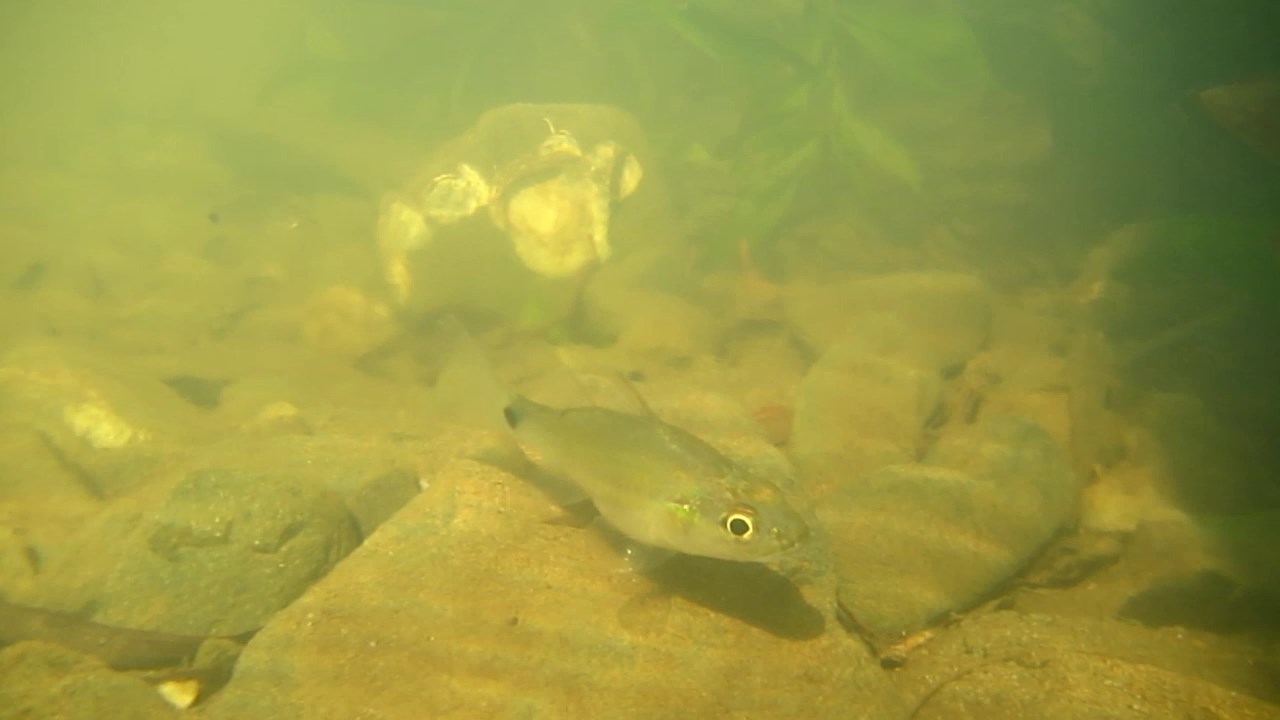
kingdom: Animalia
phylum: Chordata
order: Perciformes
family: Apogonidae
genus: Yarica
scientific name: Yarica hyalosoma
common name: Hump-backed cardinalfish
